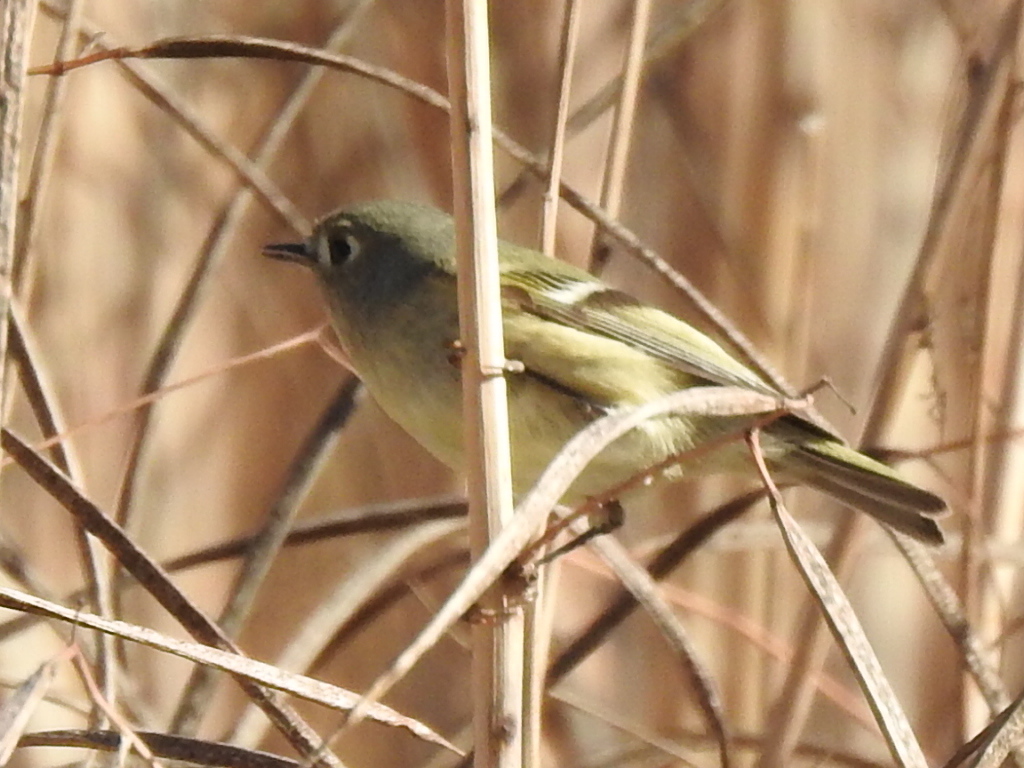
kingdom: Animalia
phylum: Chordata
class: Aves
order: Passeriformes
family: Regulidae
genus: Regulus
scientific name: Regulus calendula
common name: Ruby-crowned kinglet
